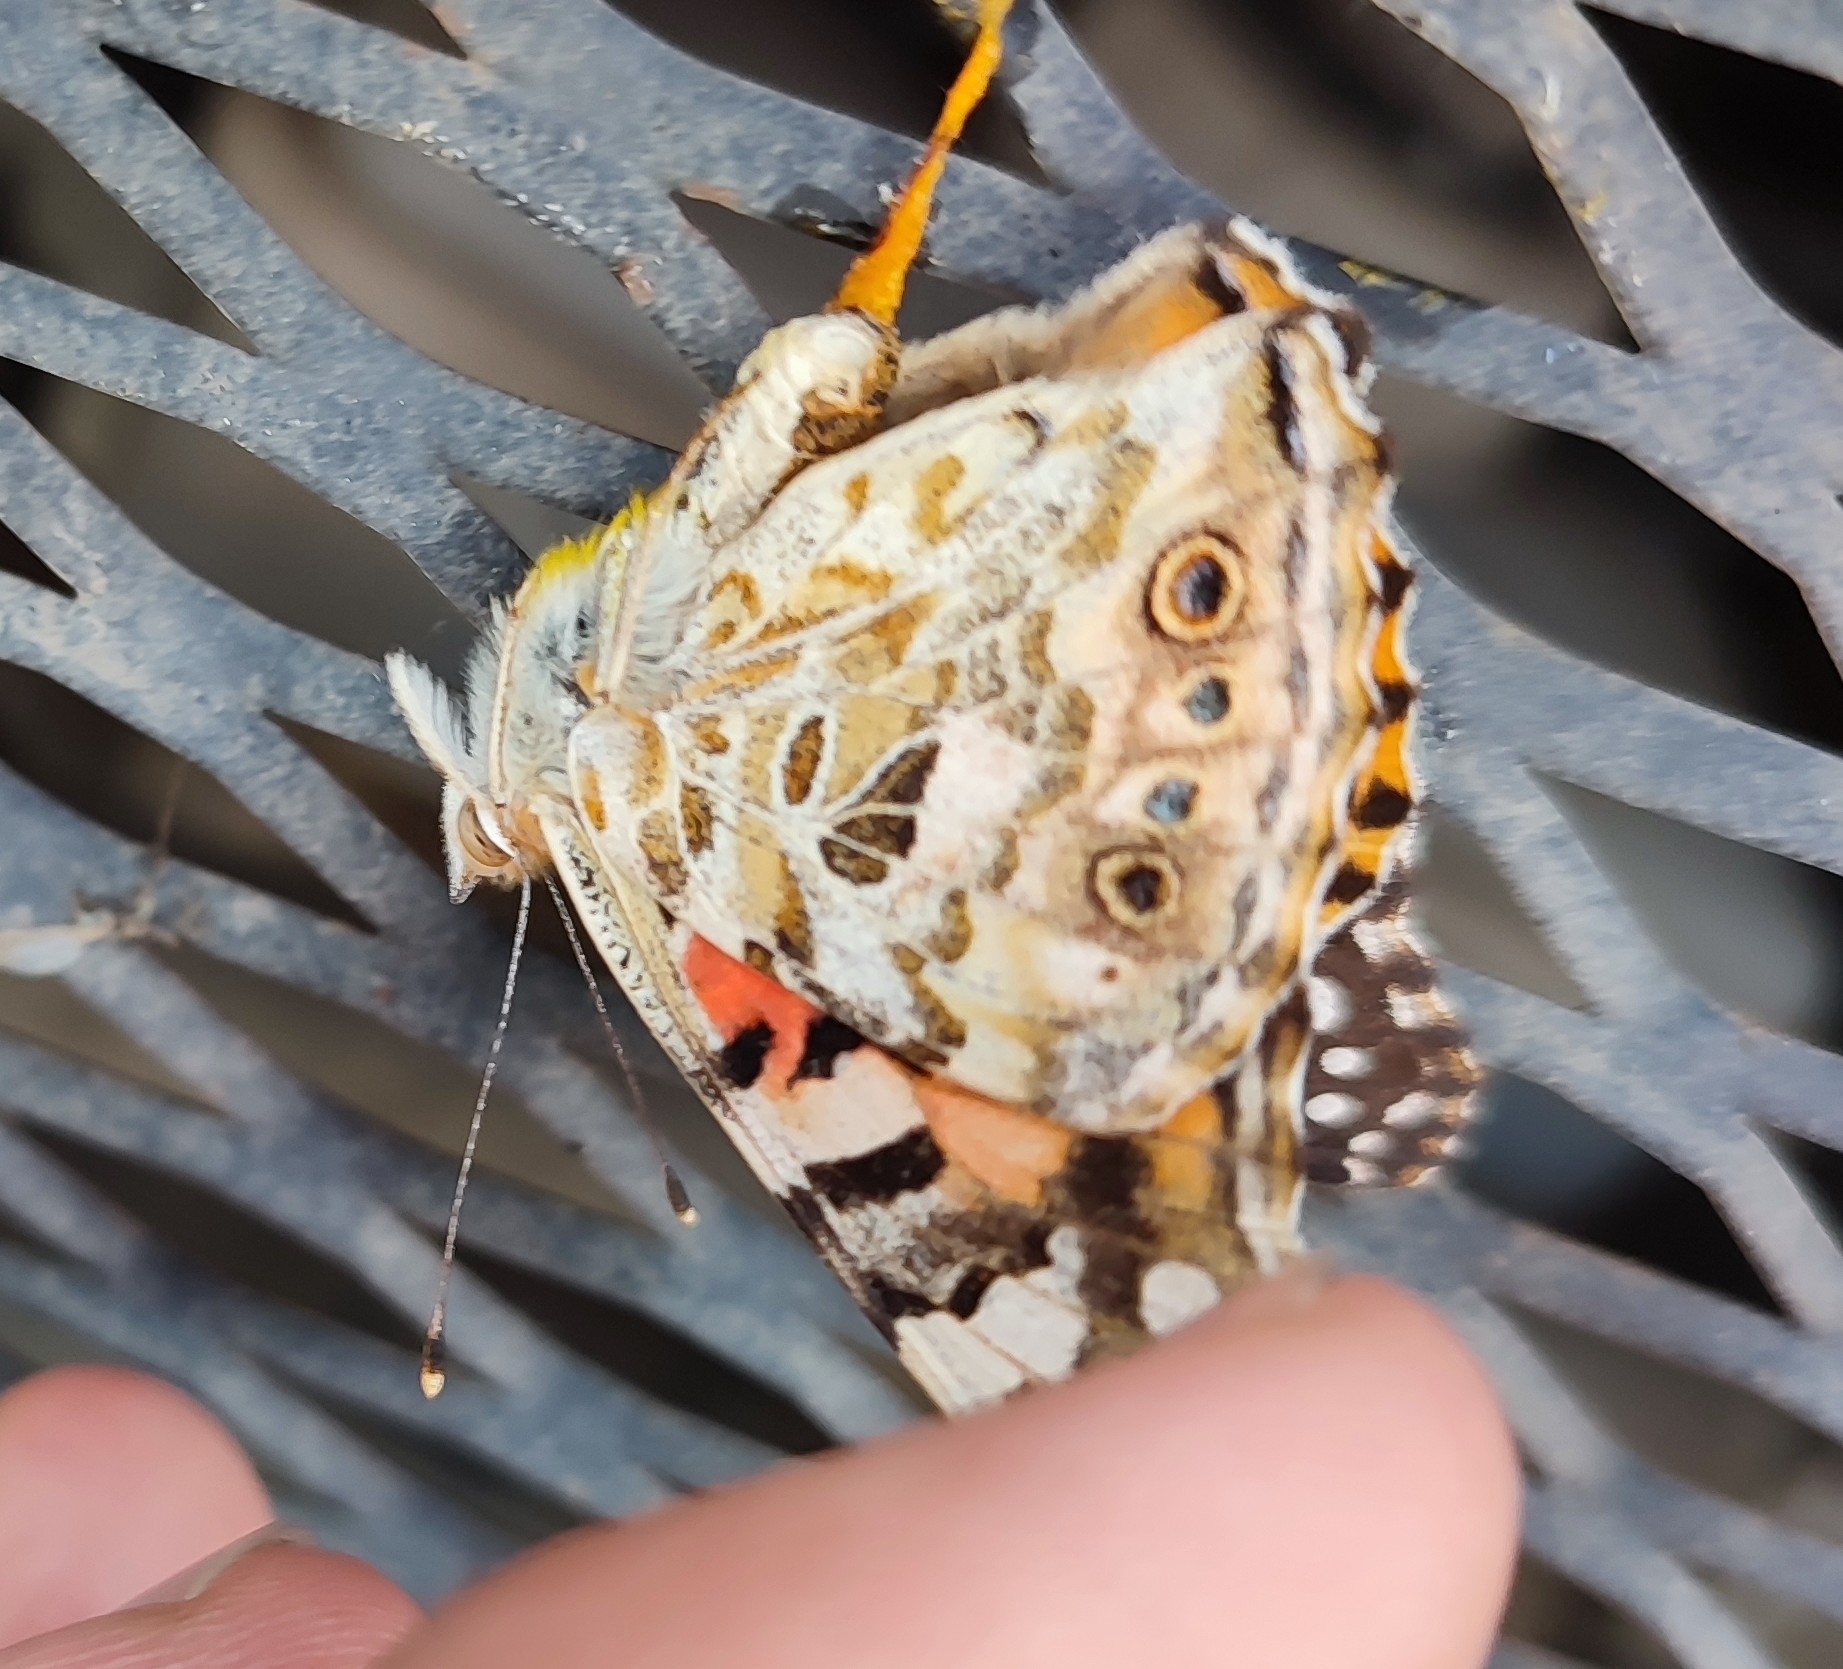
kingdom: Animalia
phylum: Arthropoda
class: Insecta
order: Lepidoptera
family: Nymphalidae
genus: Vanessa
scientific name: Vanessa cardui
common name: Painted lady
